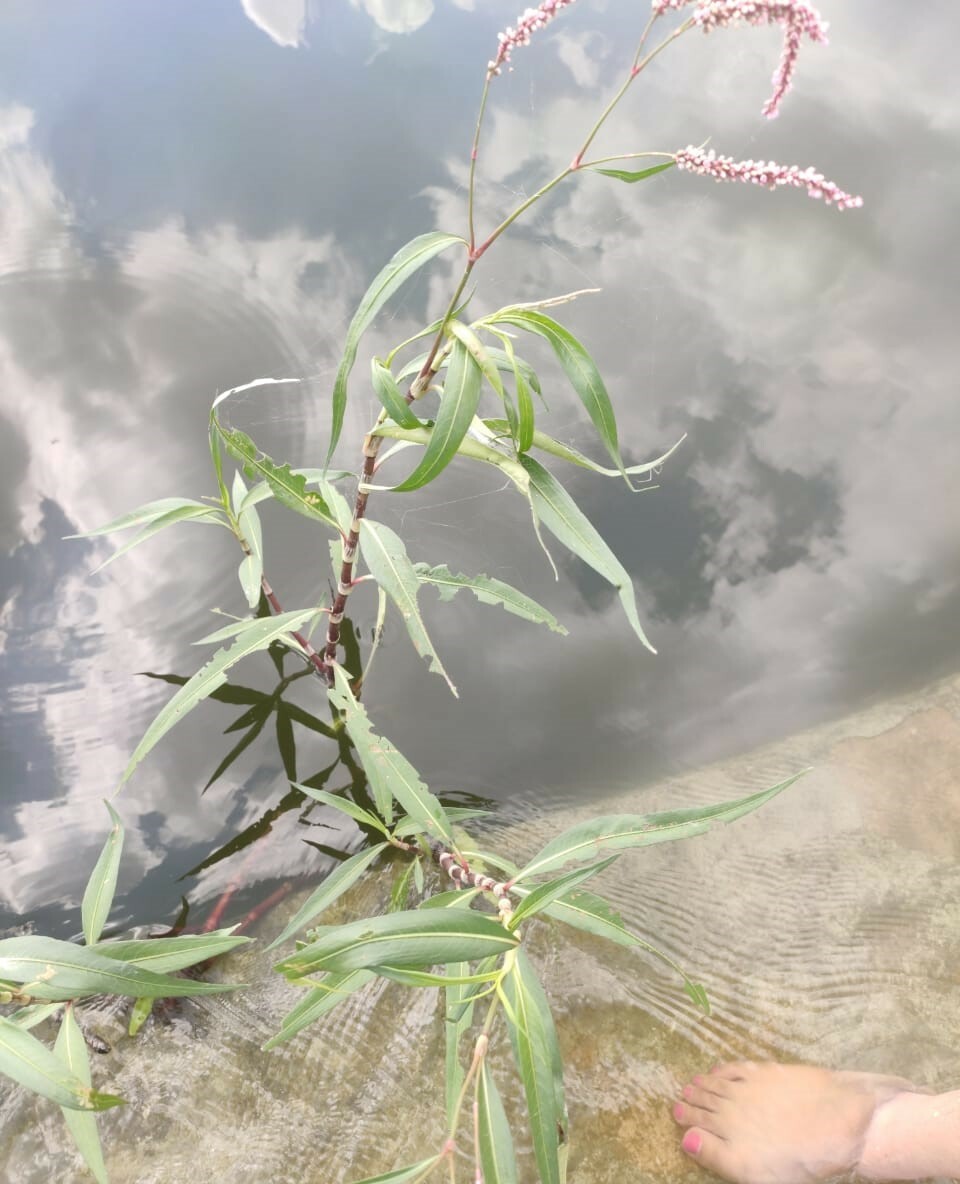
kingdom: Plantae
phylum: Tracheophyta
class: Magnoliopsida
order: Caryophyllales
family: Polygonaceae
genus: Persicaria
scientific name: Persicaria glabra
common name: Denseflower knotweed
